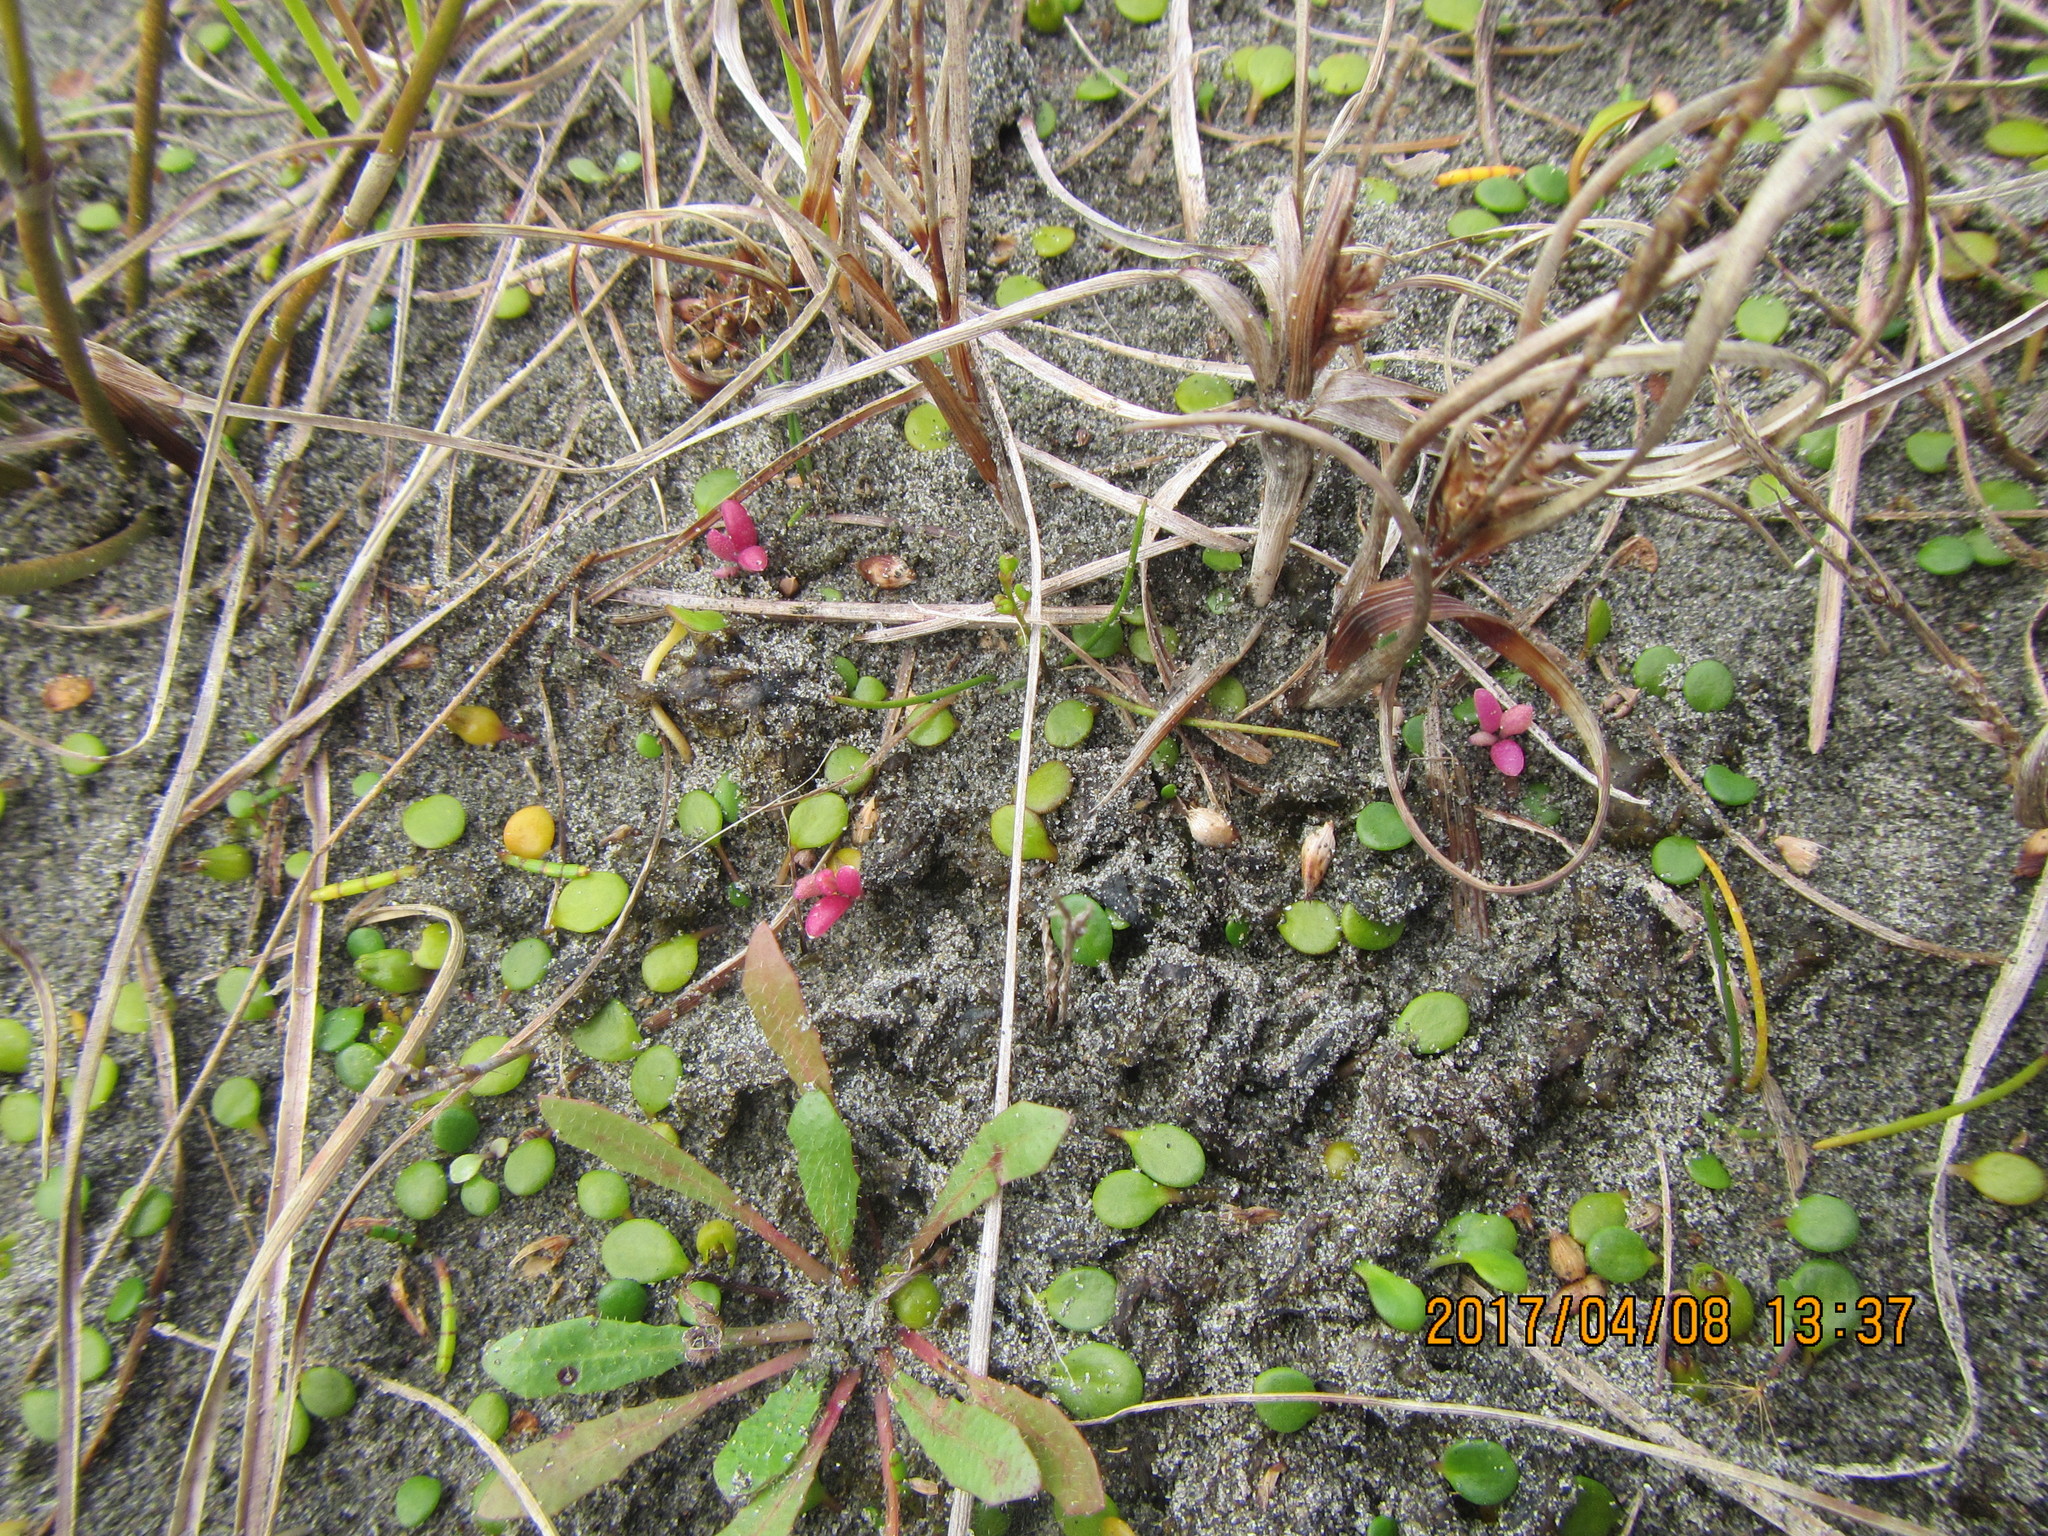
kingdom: Plantae
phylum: Tracheophyta
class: Magnoliopsida
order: Asterales
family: Asteraceae
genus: Senecio
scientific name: Senecio elegans
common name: Purple groundsel
